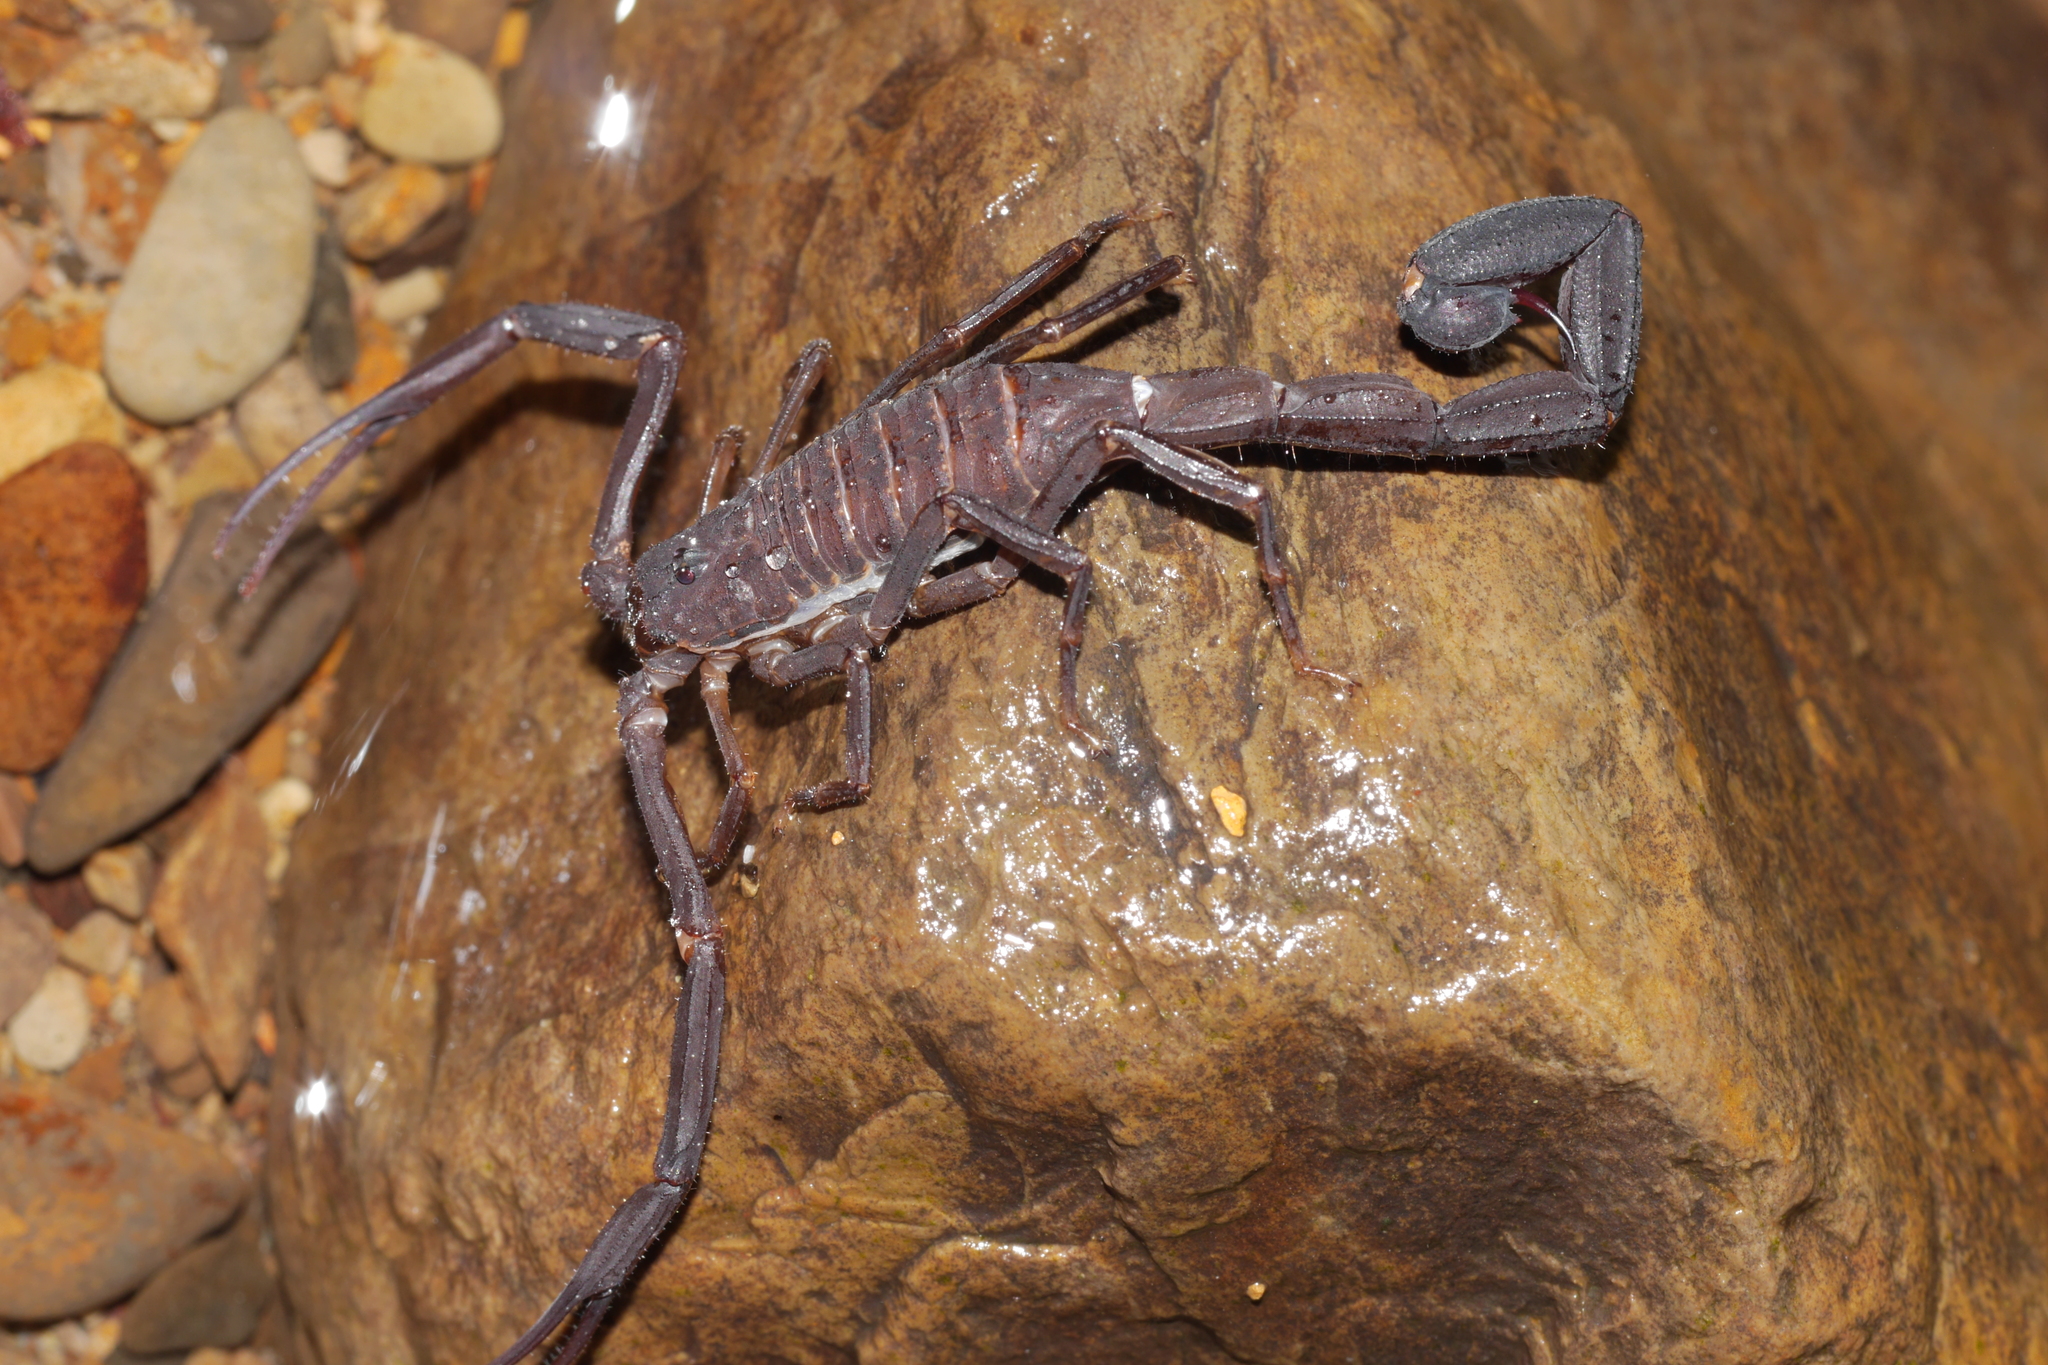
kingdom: Animalia
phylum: Arthropoda
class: Arachnida
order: Scorpiones
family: Buthidae
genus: Tityus
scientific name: Tityus asthenes
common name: Scorpions
